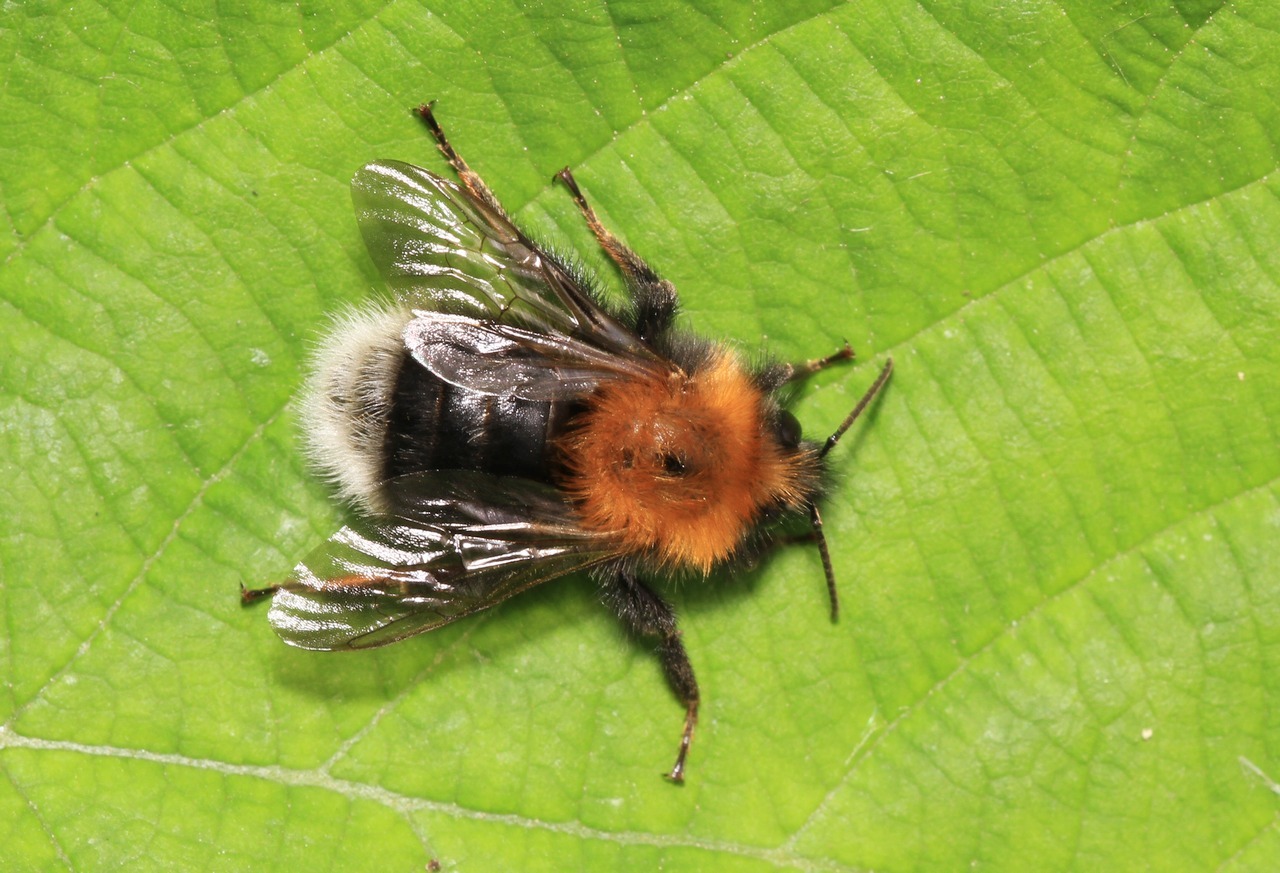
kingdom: Animalia
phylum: Arthropoda
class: Insecta
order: Hymenoptera
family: Apidae
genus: Bombus
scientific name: Bombus hypnorum
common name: New garden bumblebee
